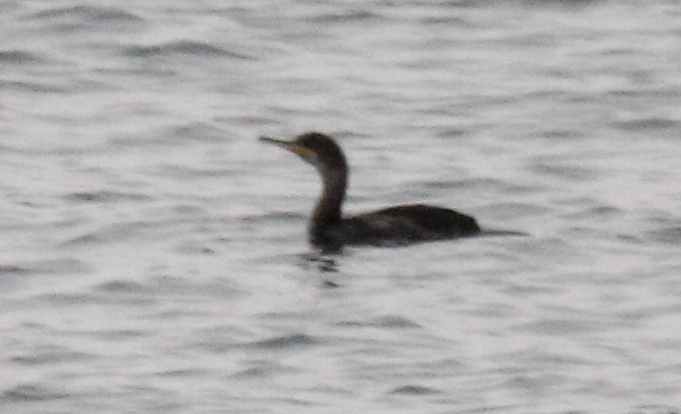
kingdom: Animalia
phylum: Chordata
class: Aves
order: Suliformes
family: Phalacrocoracidae
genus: Phalacrocorax
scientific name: Phalacrocorax aristotelis
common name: European shag
